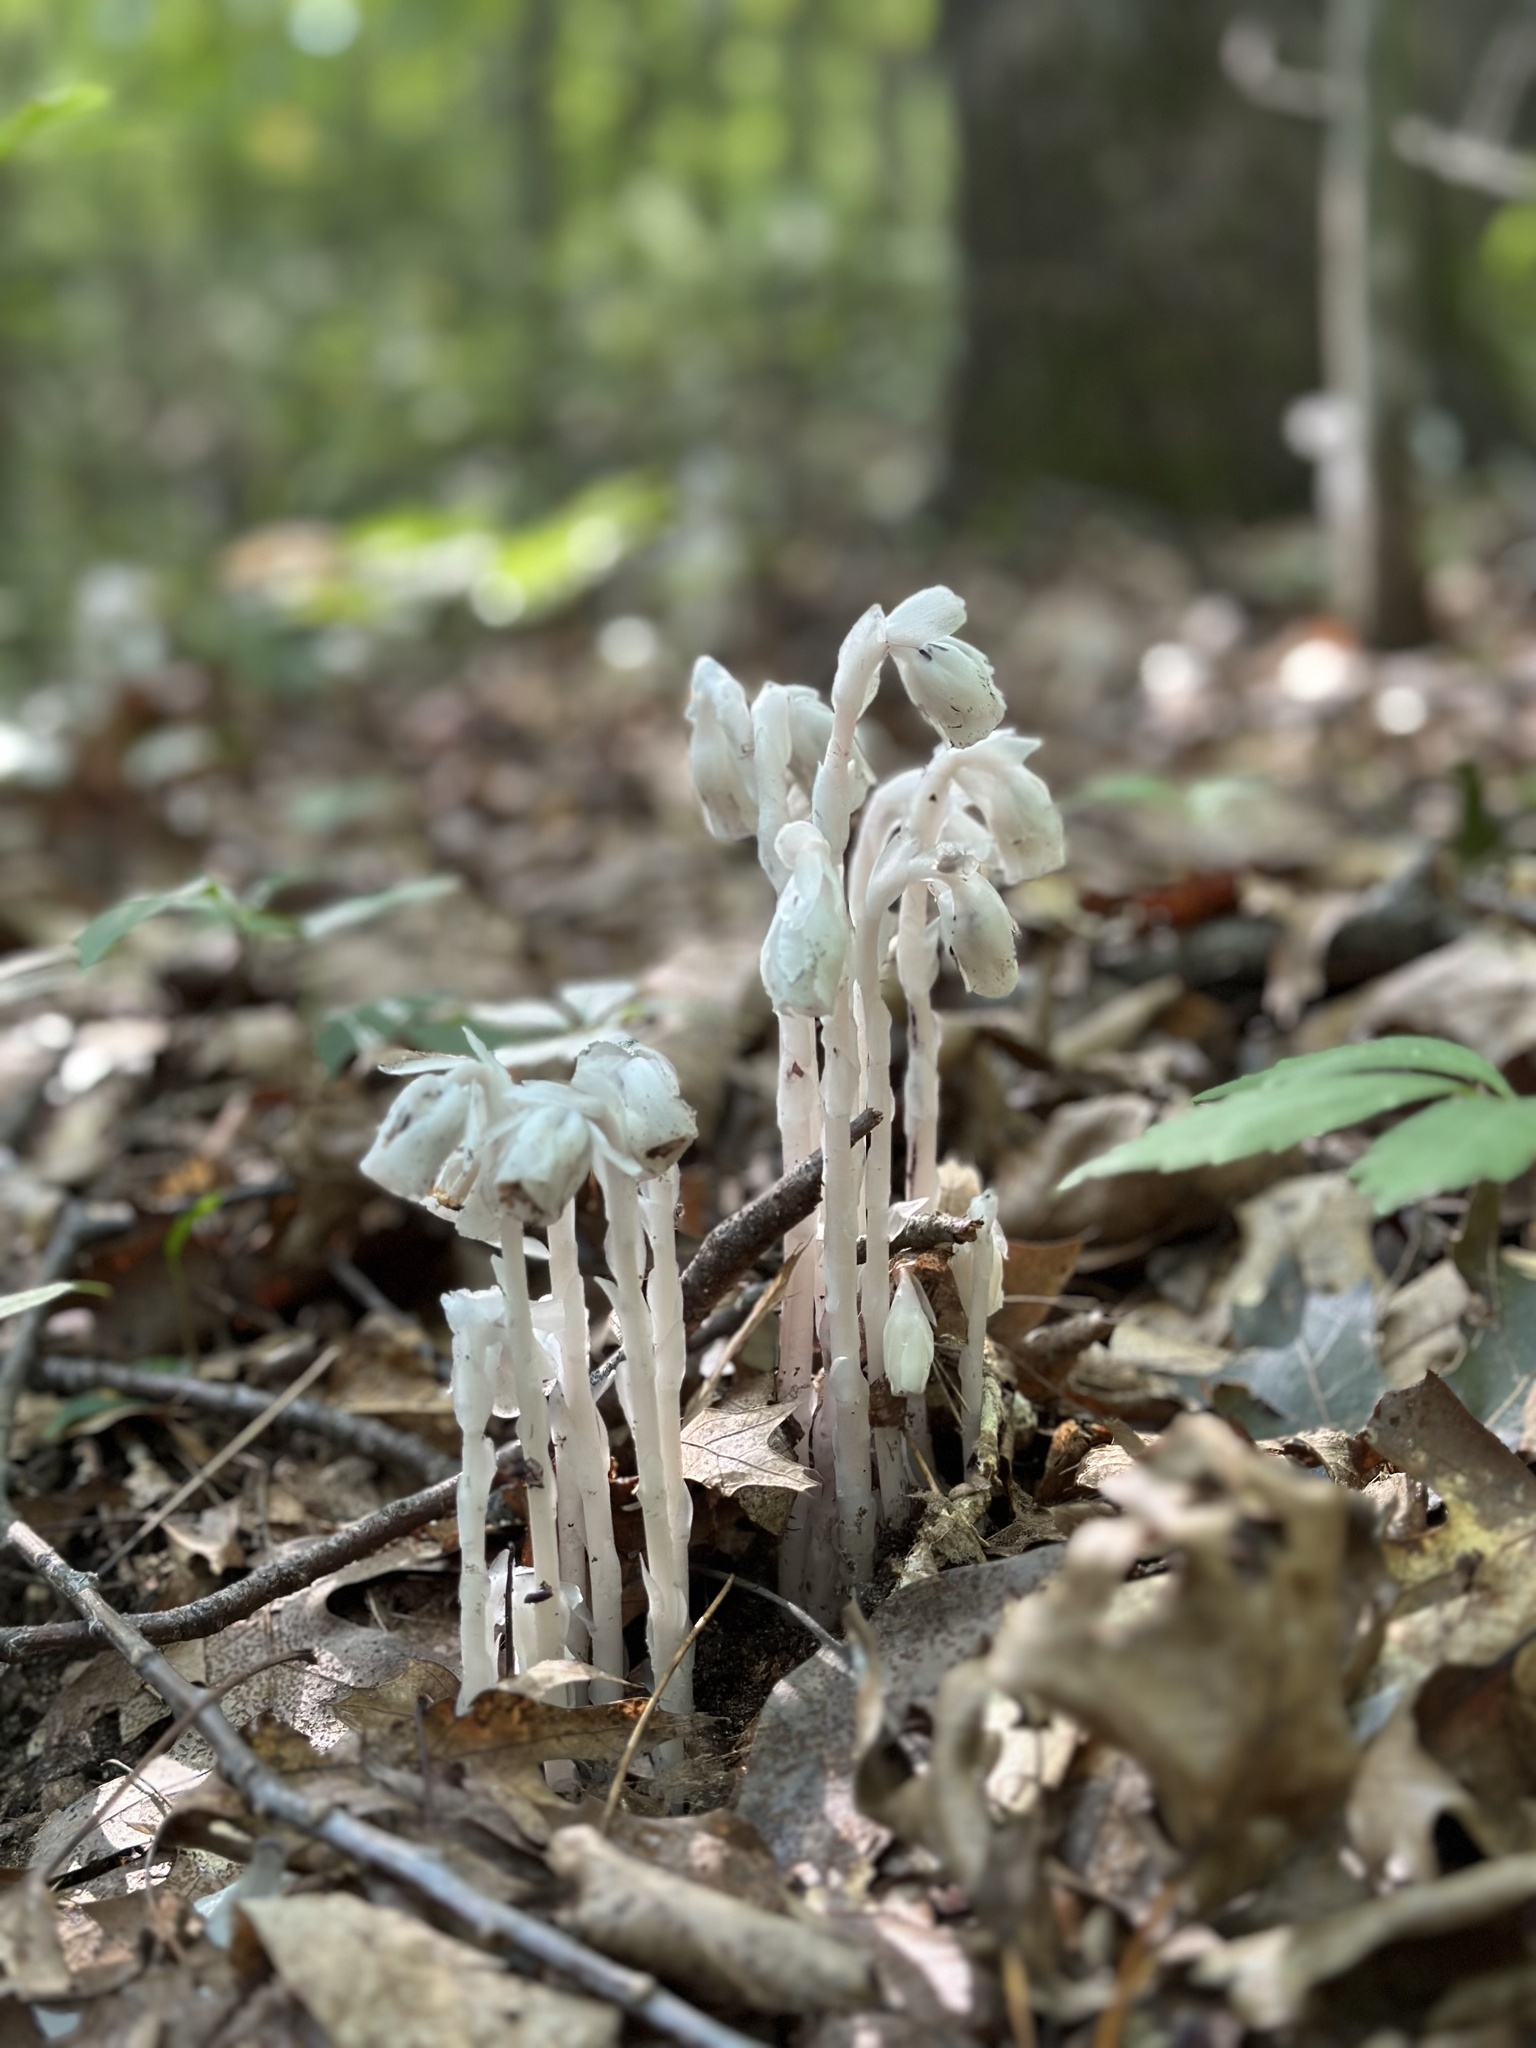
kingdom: Plantae
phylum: Tracheophyta
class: Magnoliopsida
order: Ericales
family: Ericaceae
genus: Monotropa
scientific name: Monotropa uniflora
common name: Convulsion root
